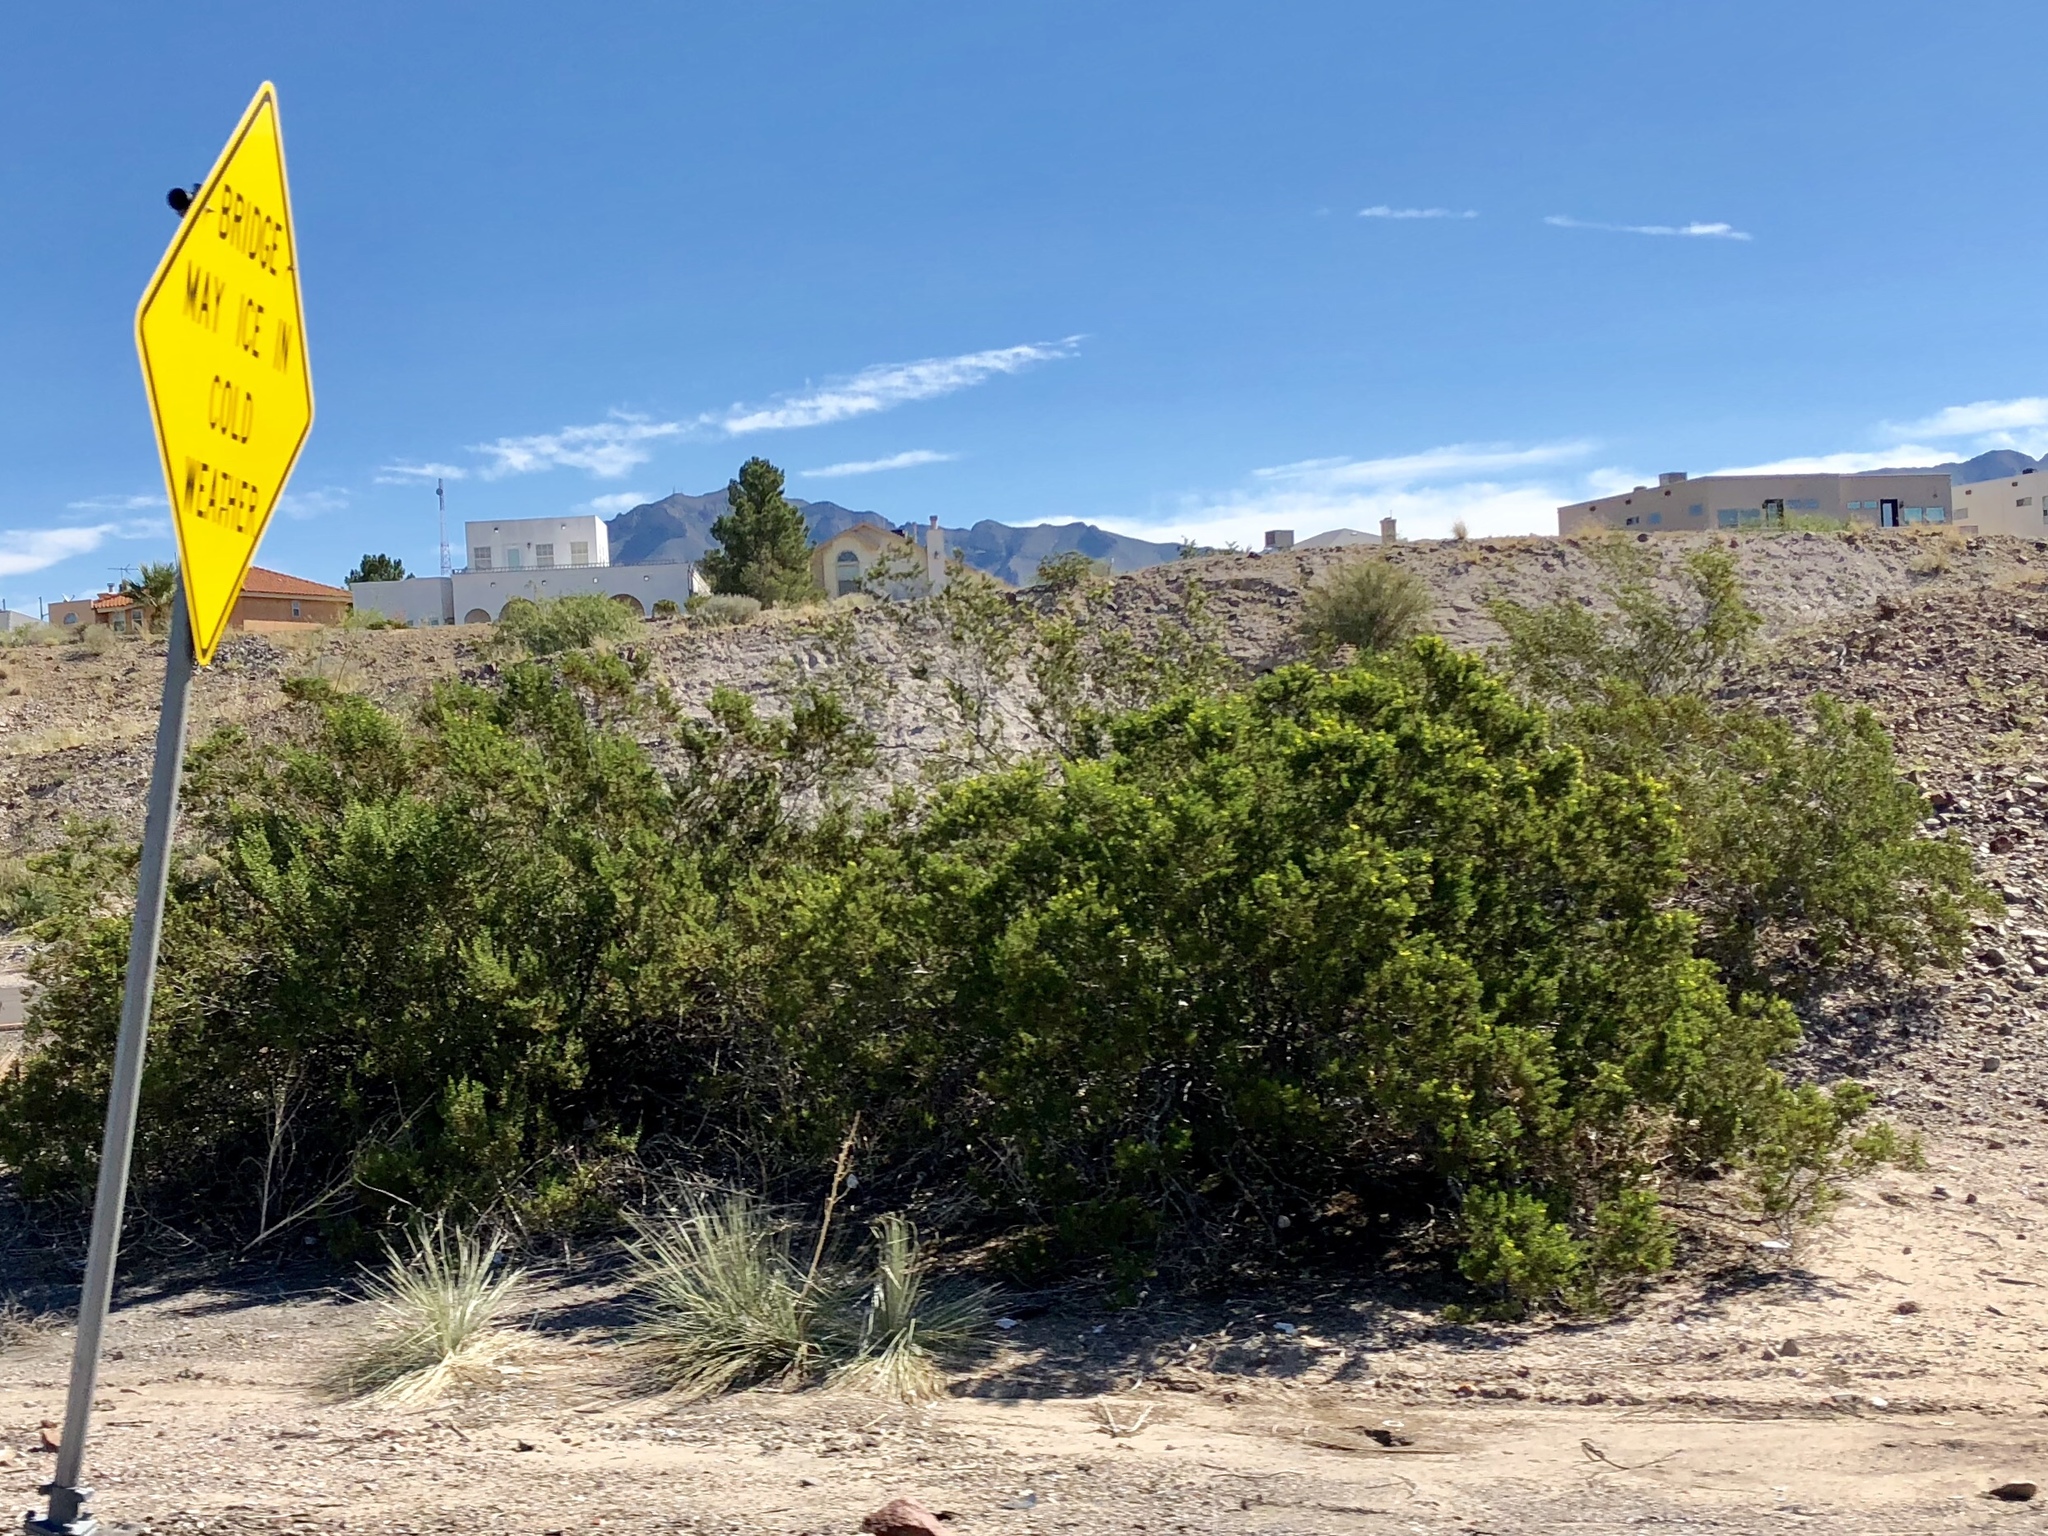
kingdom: Plantae
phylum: Tracheophyta
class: Magnoliopsida
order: Zygophyllales
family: Zygophyllaceae
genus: Larrea
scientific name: Larrea tridentata
